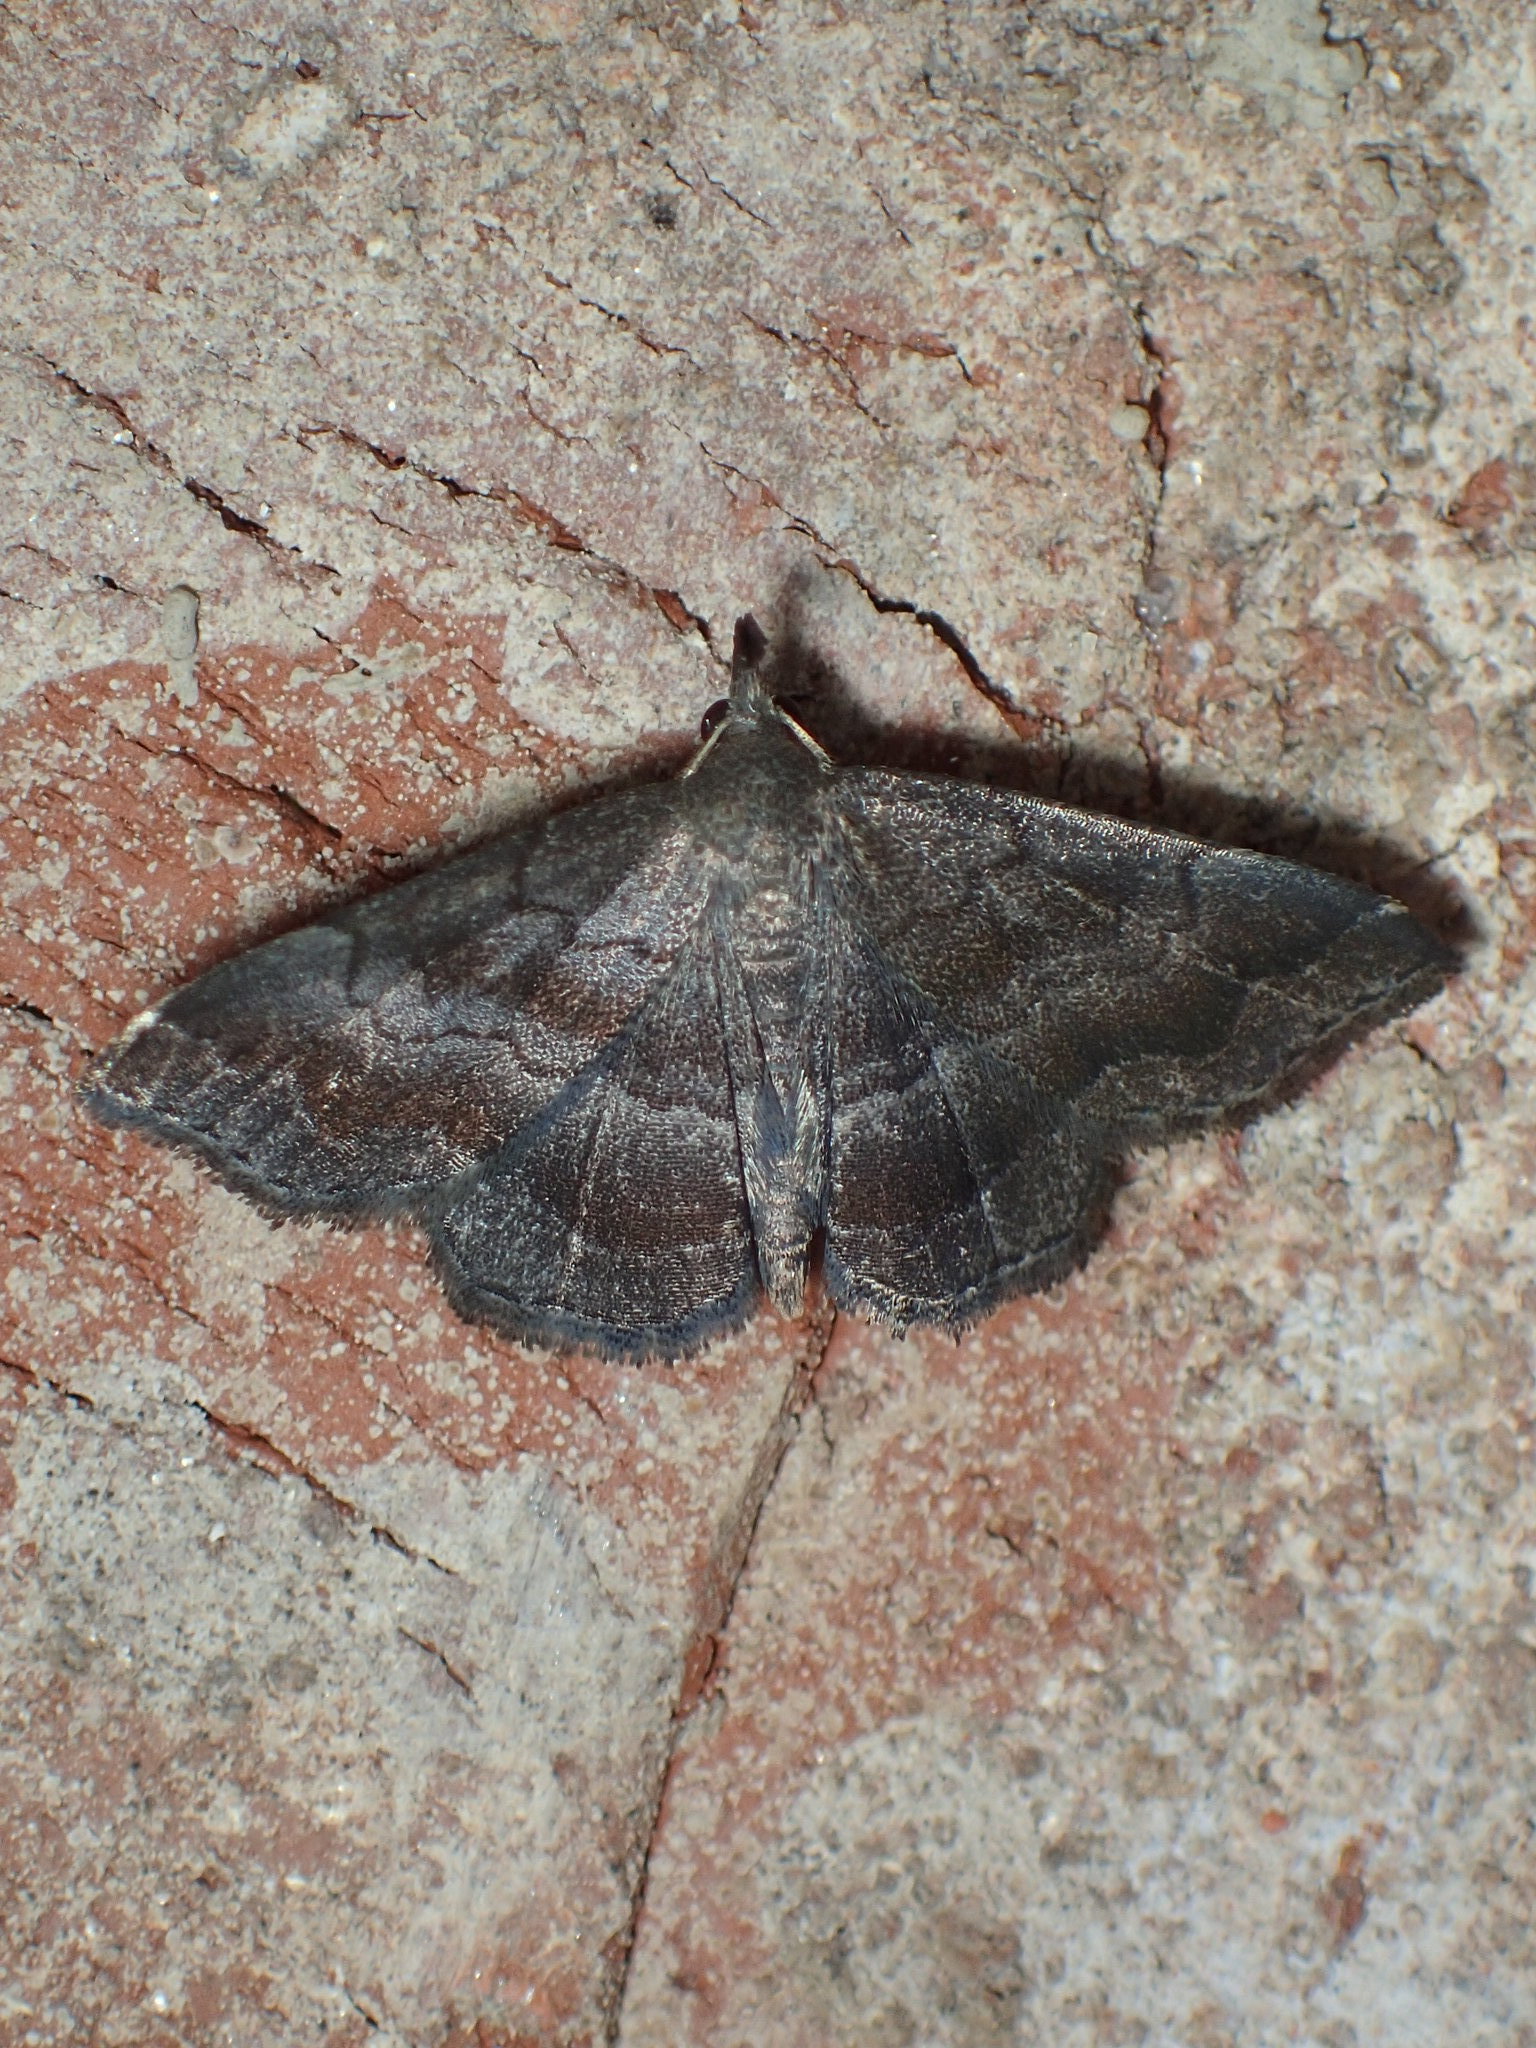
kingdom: Animalia
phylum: Arthropoda
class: Insecta
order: Lepidoptera
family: Erebidae
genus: Phalaenostola
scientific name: Phalaenostola larentioides
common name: Black-banded owlet
